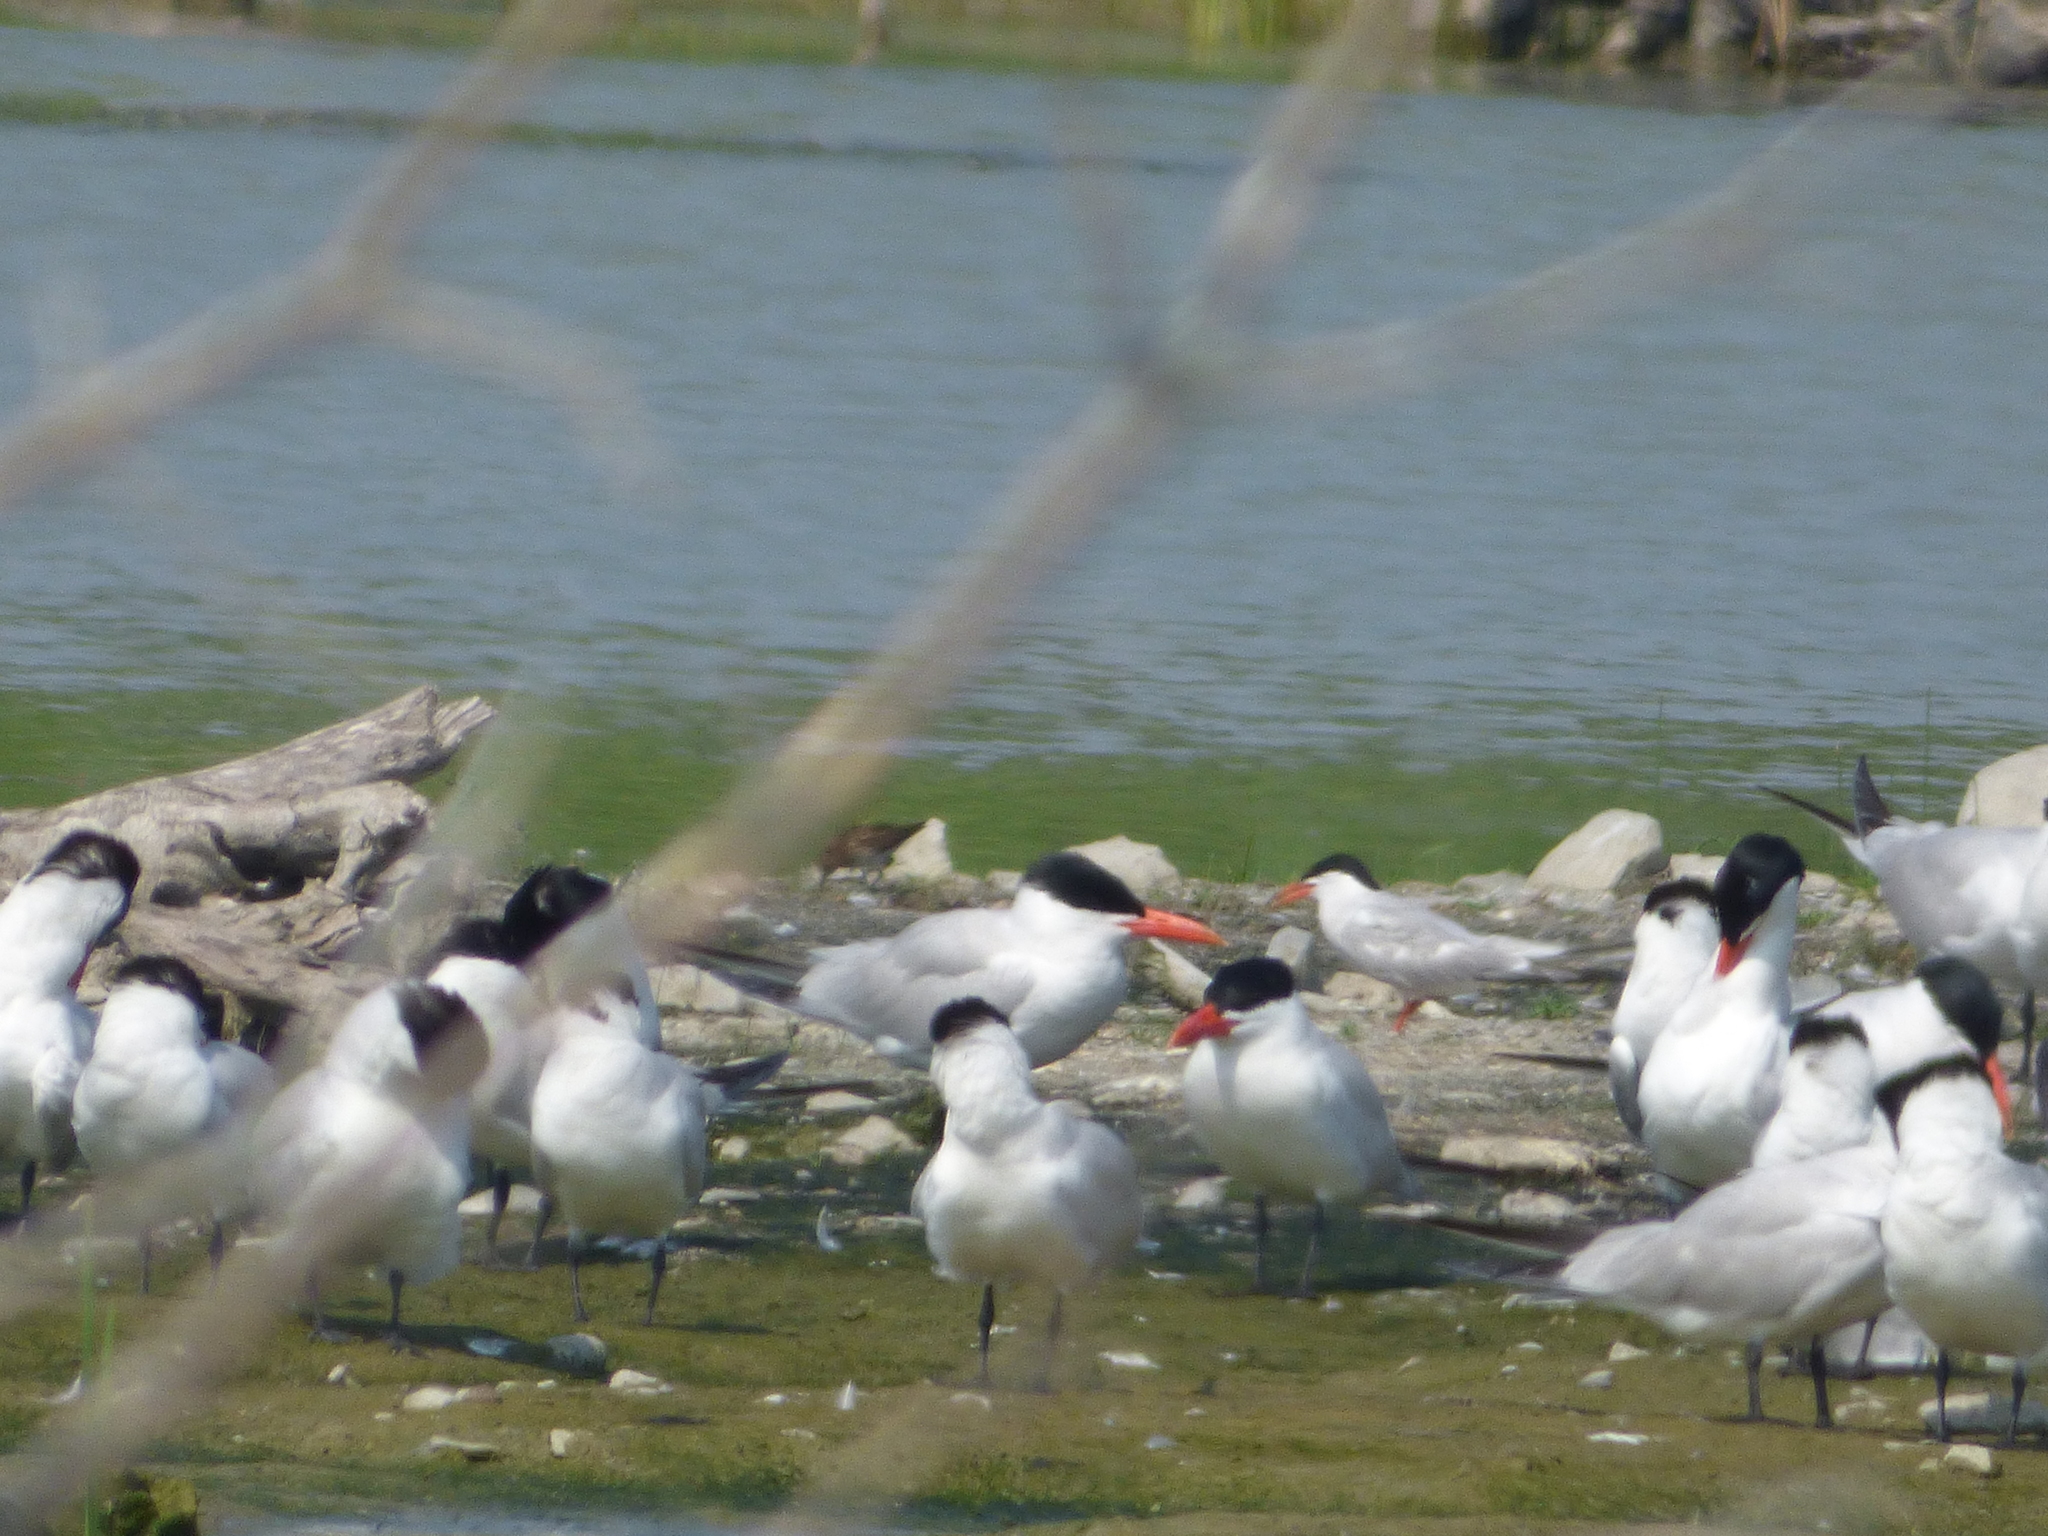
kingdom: Animalia
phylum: Chordata
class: Aves
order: Charadriiformes
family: Laridae
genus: Hydroprogne
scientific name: Hydroprogne caspia
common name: Caspian tern
